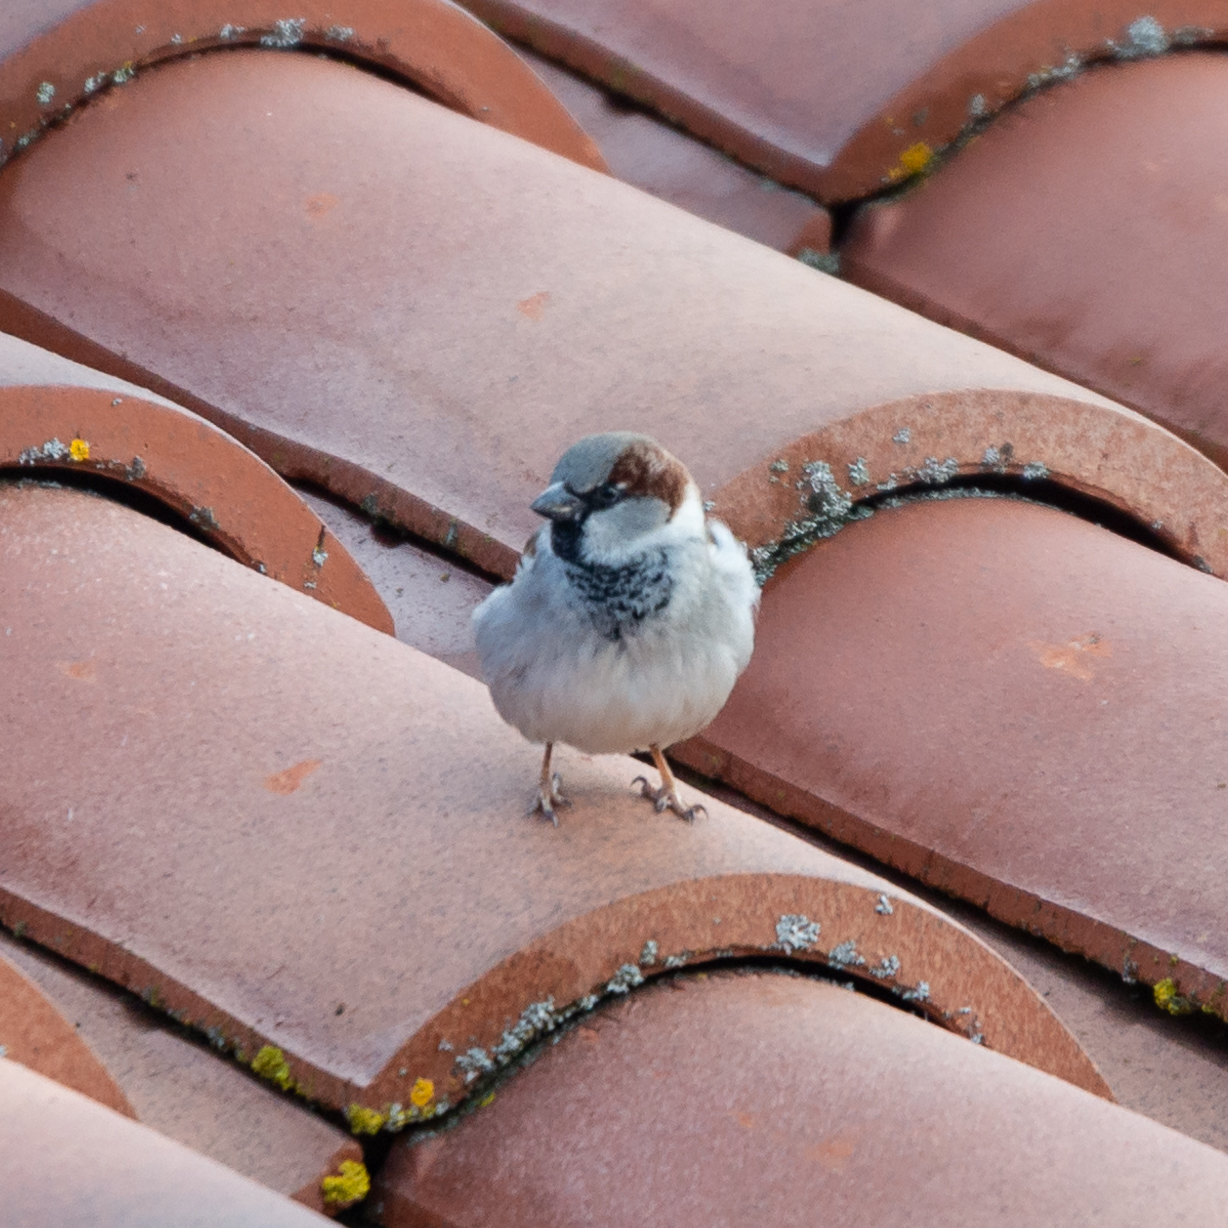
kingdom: Animalia
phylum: Chordata
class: Aves
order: Passeriformes
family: Passeridae
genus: Passer
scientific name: Passer domesticus
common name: House sparrow
